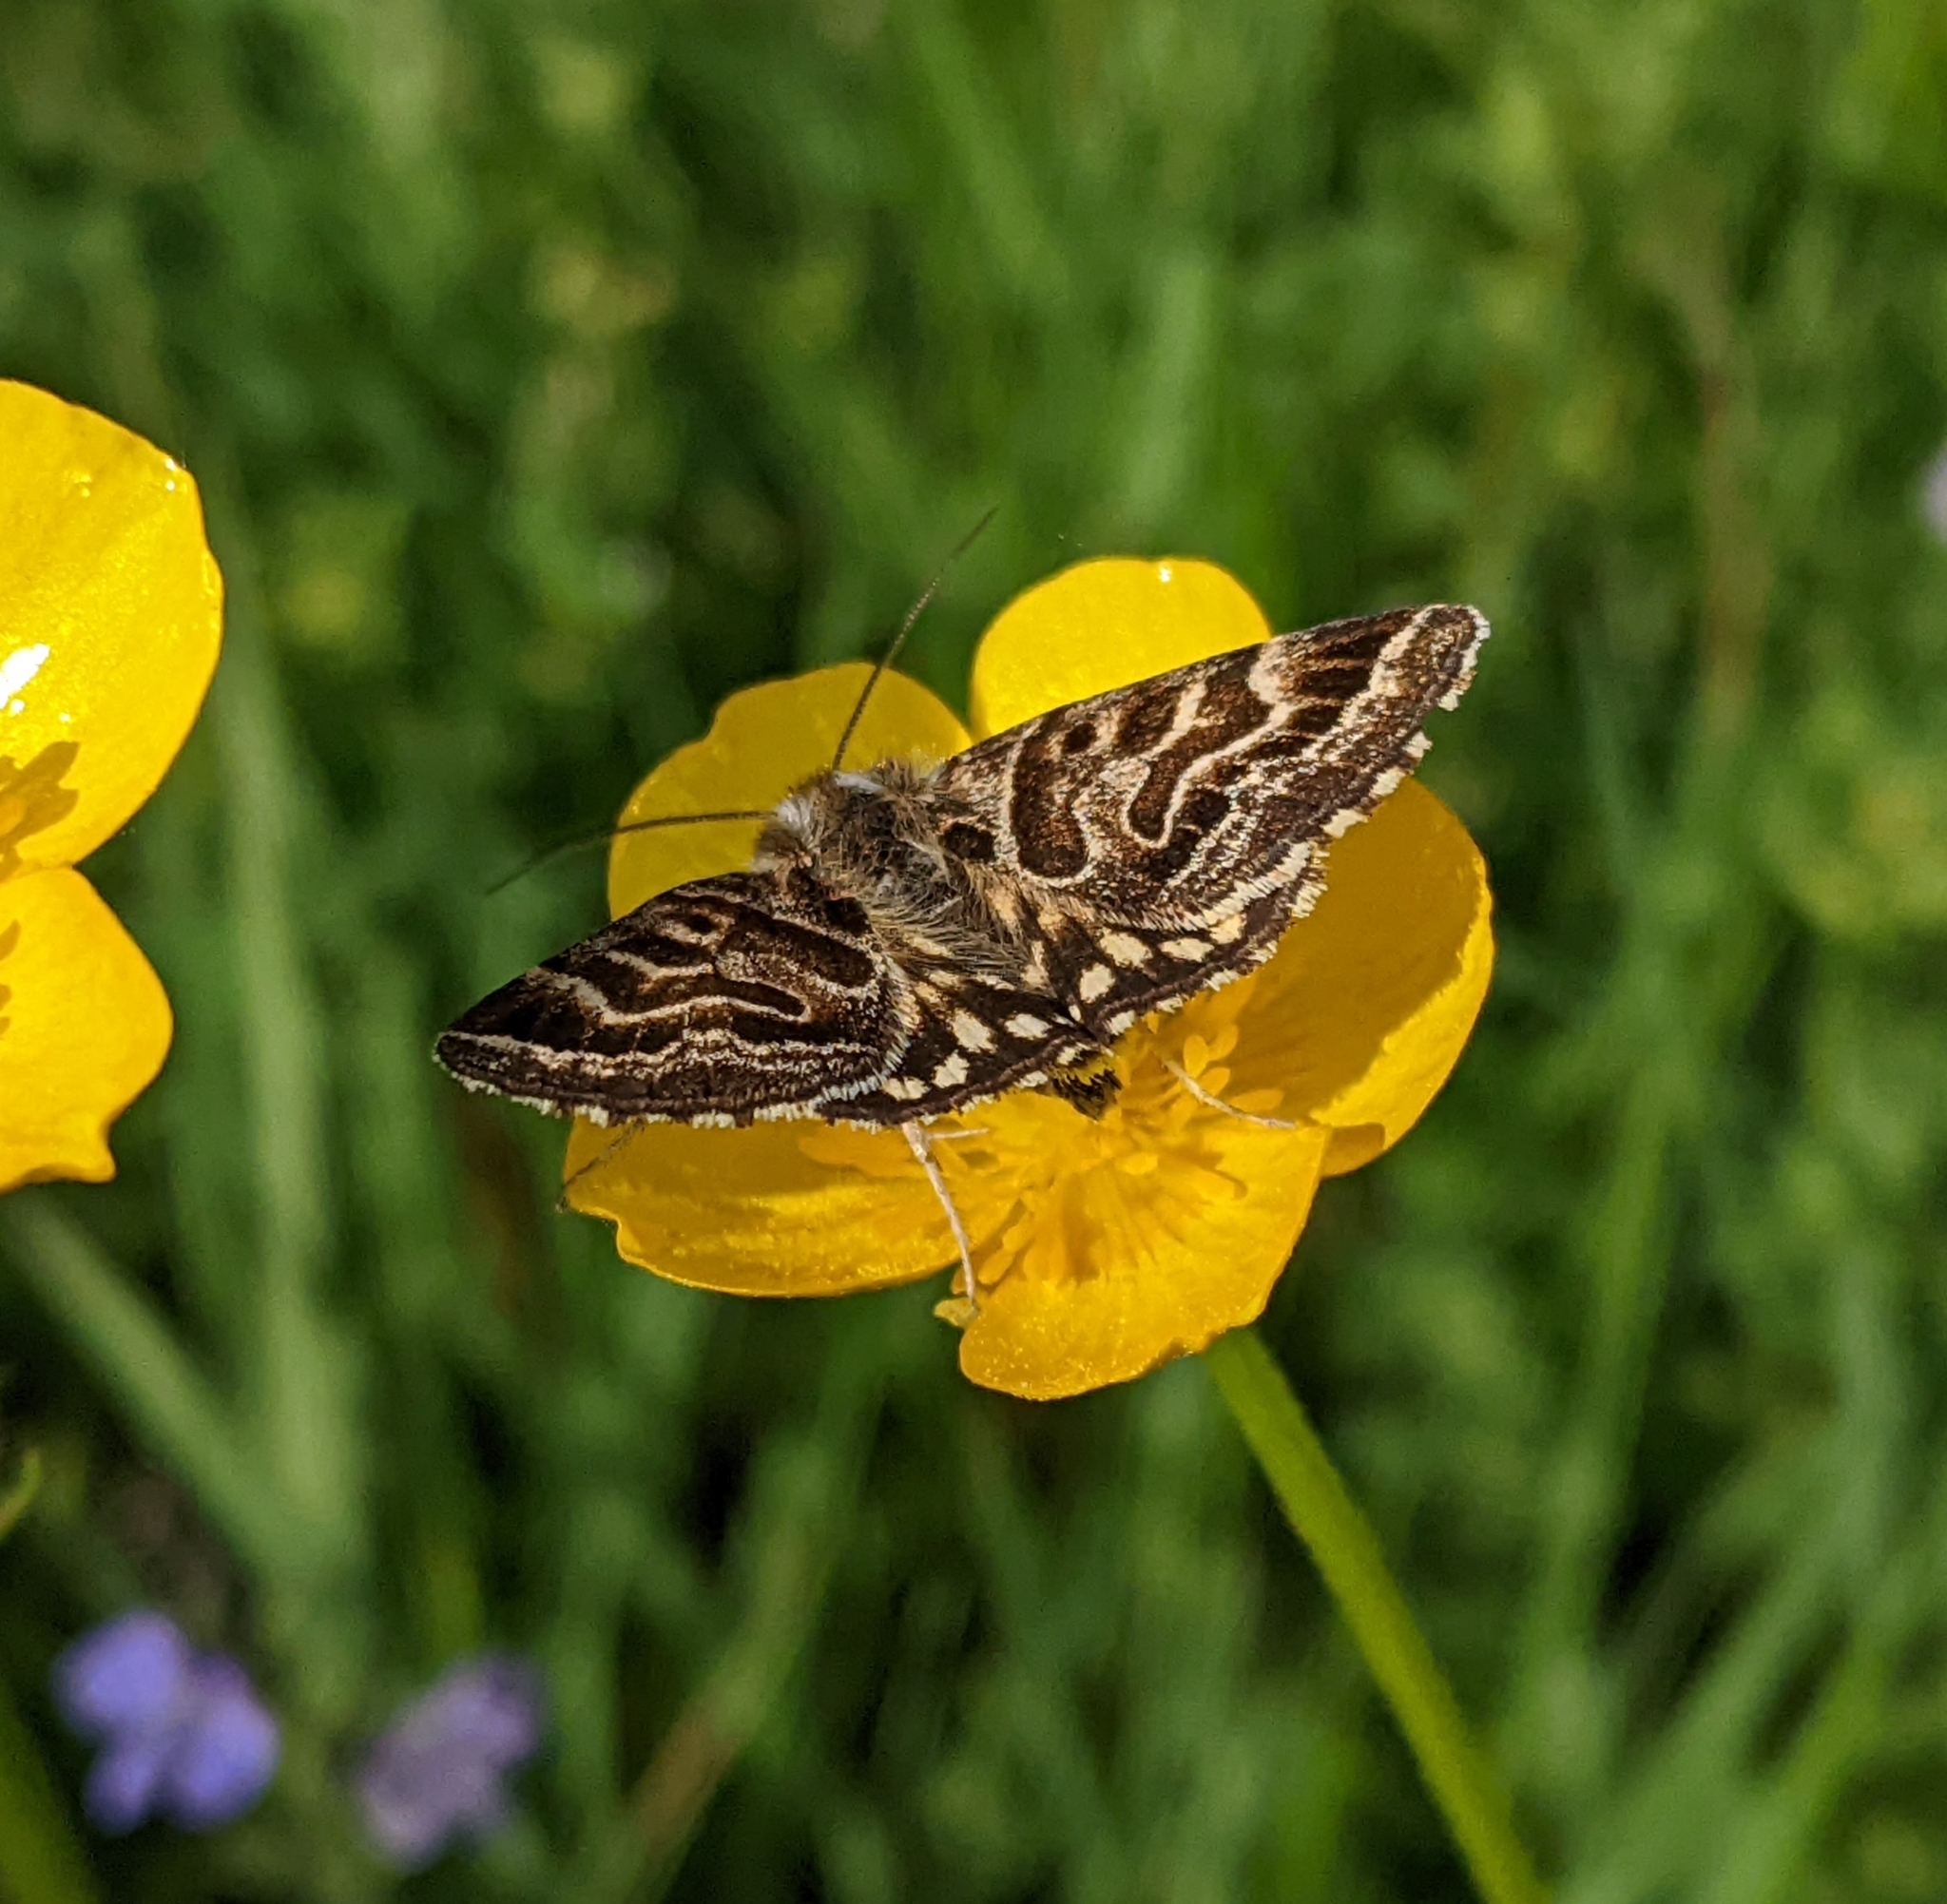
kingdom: Animalia
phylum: Arthropoda
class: Insecta
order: Lepidoptera
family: Erebidae
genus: Callistege
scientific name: Callistege mi
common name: Mother shipton
